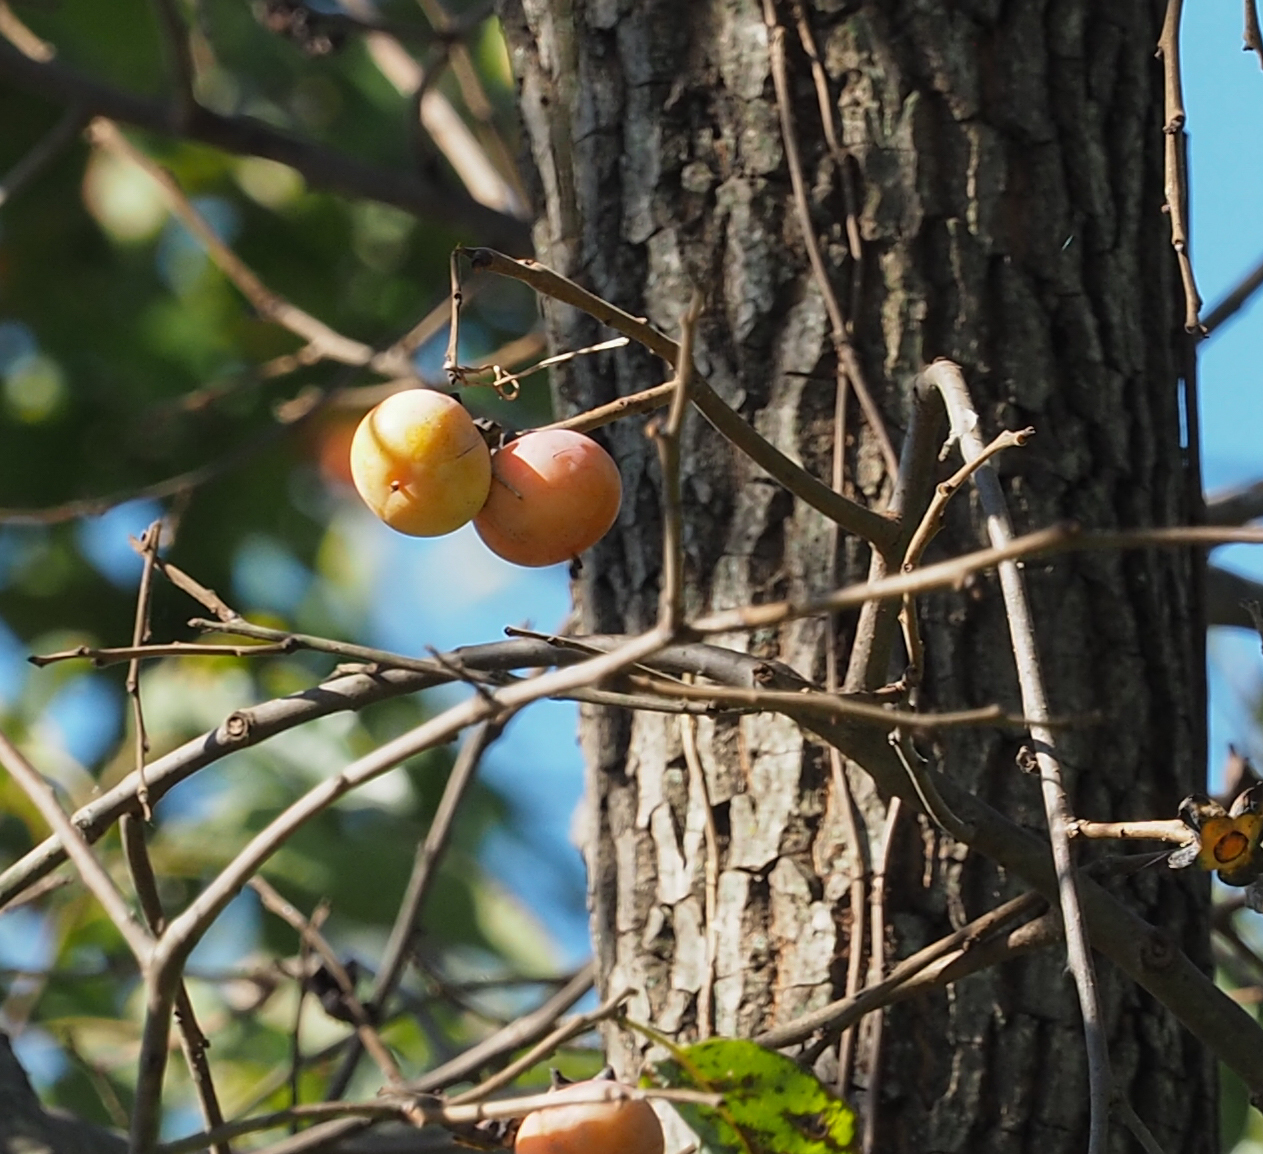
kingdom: Plantae
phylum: Tracheophyta
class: Magnoliopsida
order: Ericales
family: Ebenaceae
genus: Diospyros
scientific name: Diospyros virginiana
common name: Persimmon
